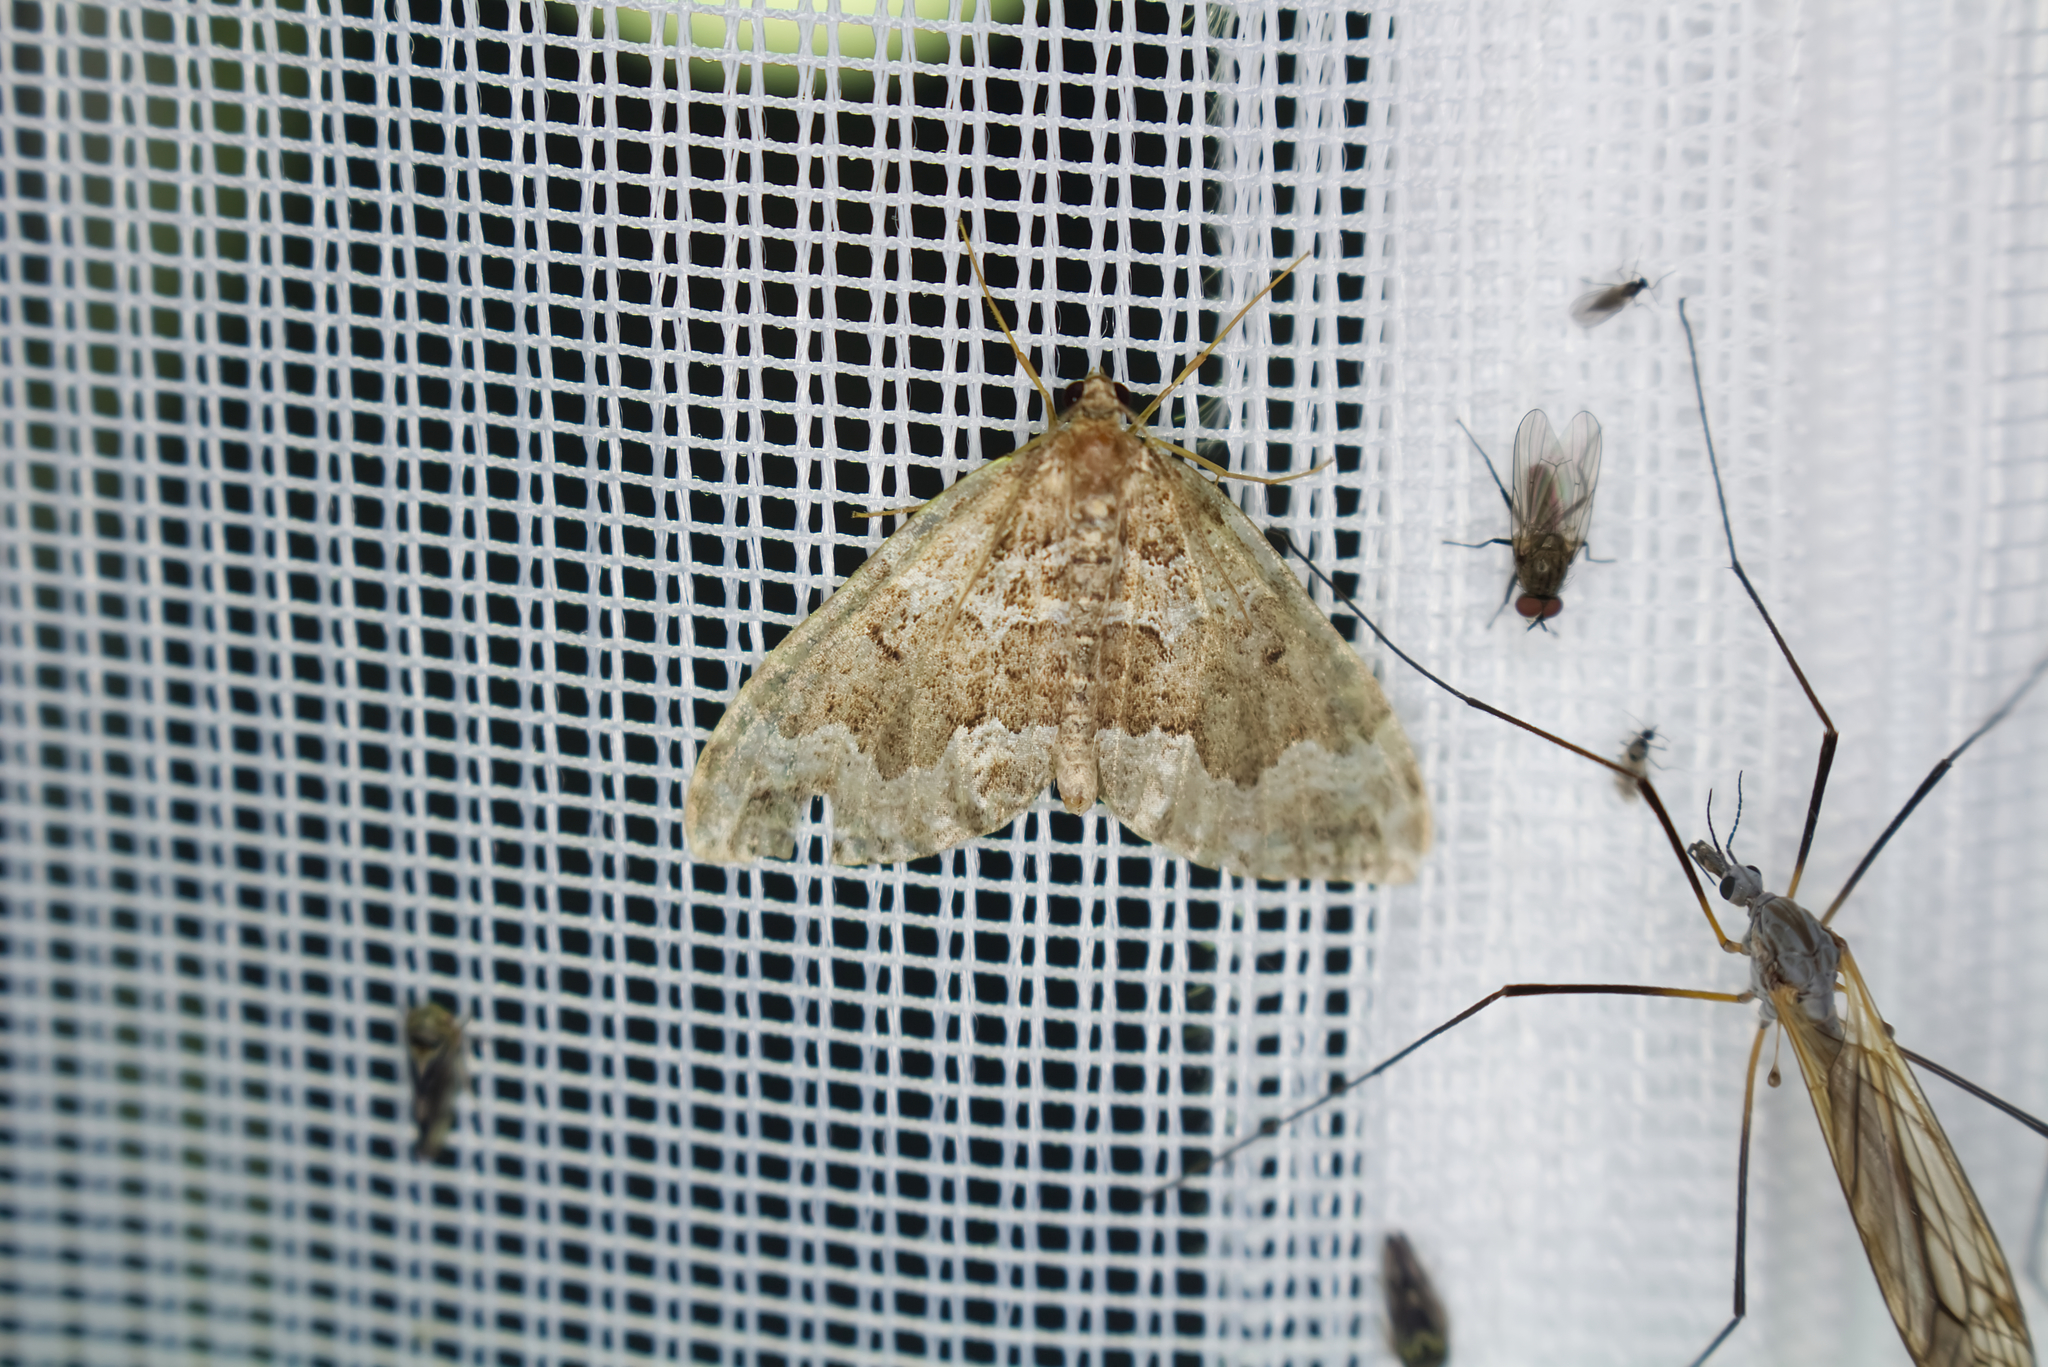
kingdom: Animalia
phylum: Arthropoda
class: Insecta
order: Lepidoptera
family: Geometridae
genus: Lampropteryx
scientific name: Lampropteryx suffumata
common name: Water carpet
